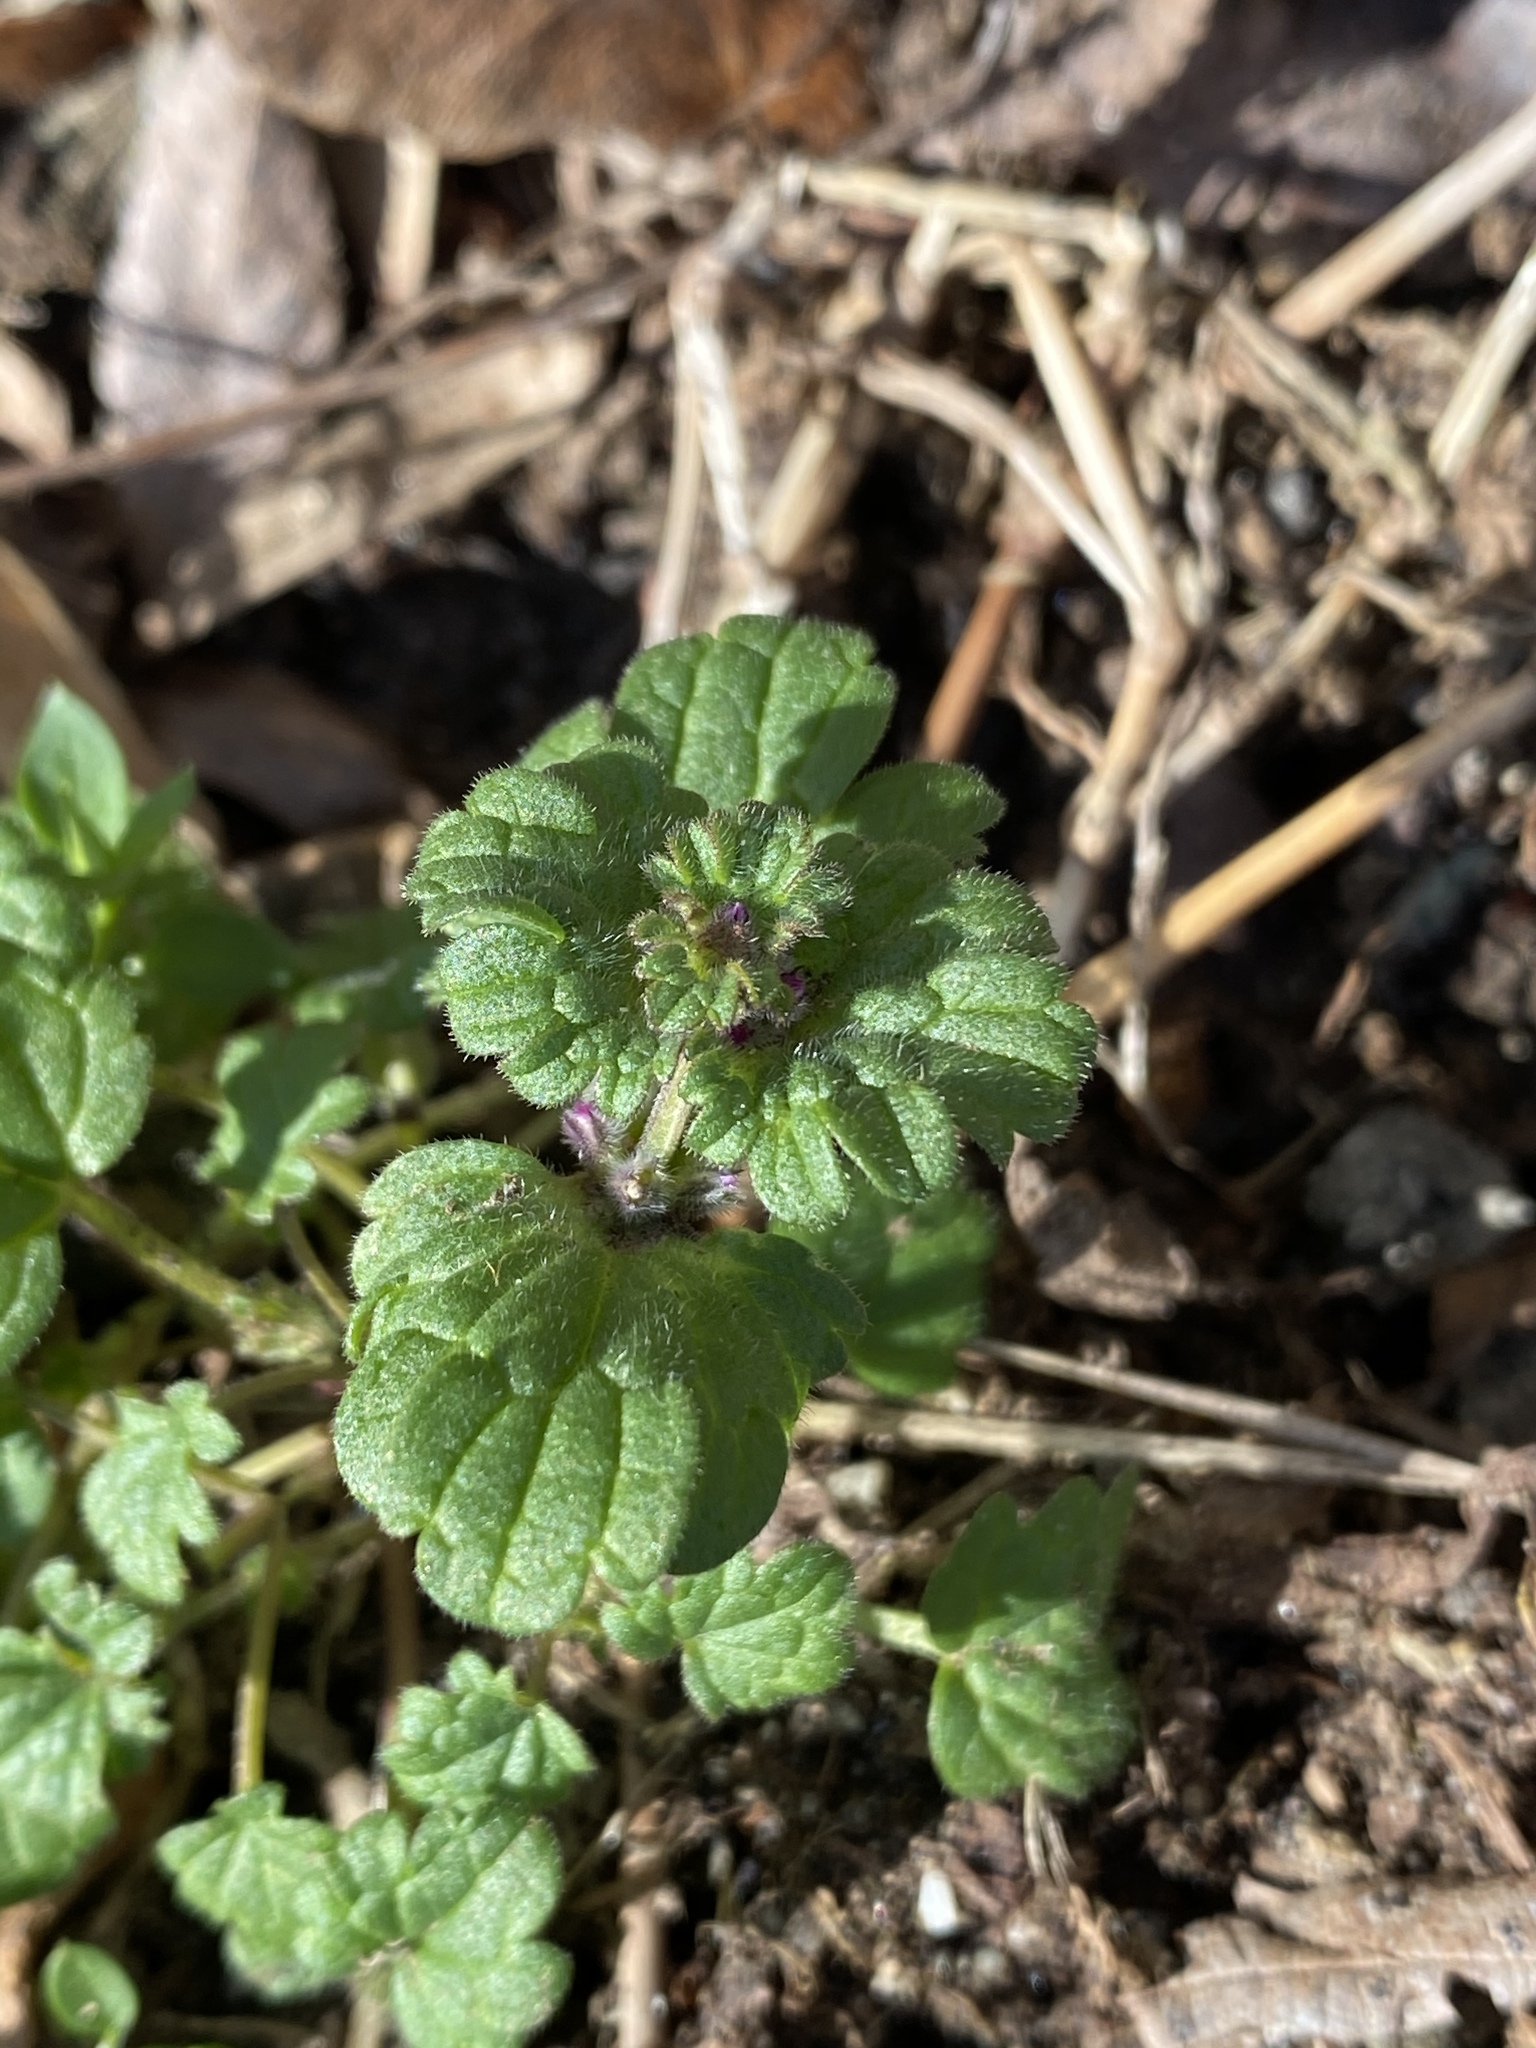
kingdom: Plantae
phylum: Tracheophyta
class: Magnoliopsida
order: Lamiales
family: Lamiaceae
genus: Lamium
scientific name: Lamium amplexicaule
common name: Henbit dead-nettle
